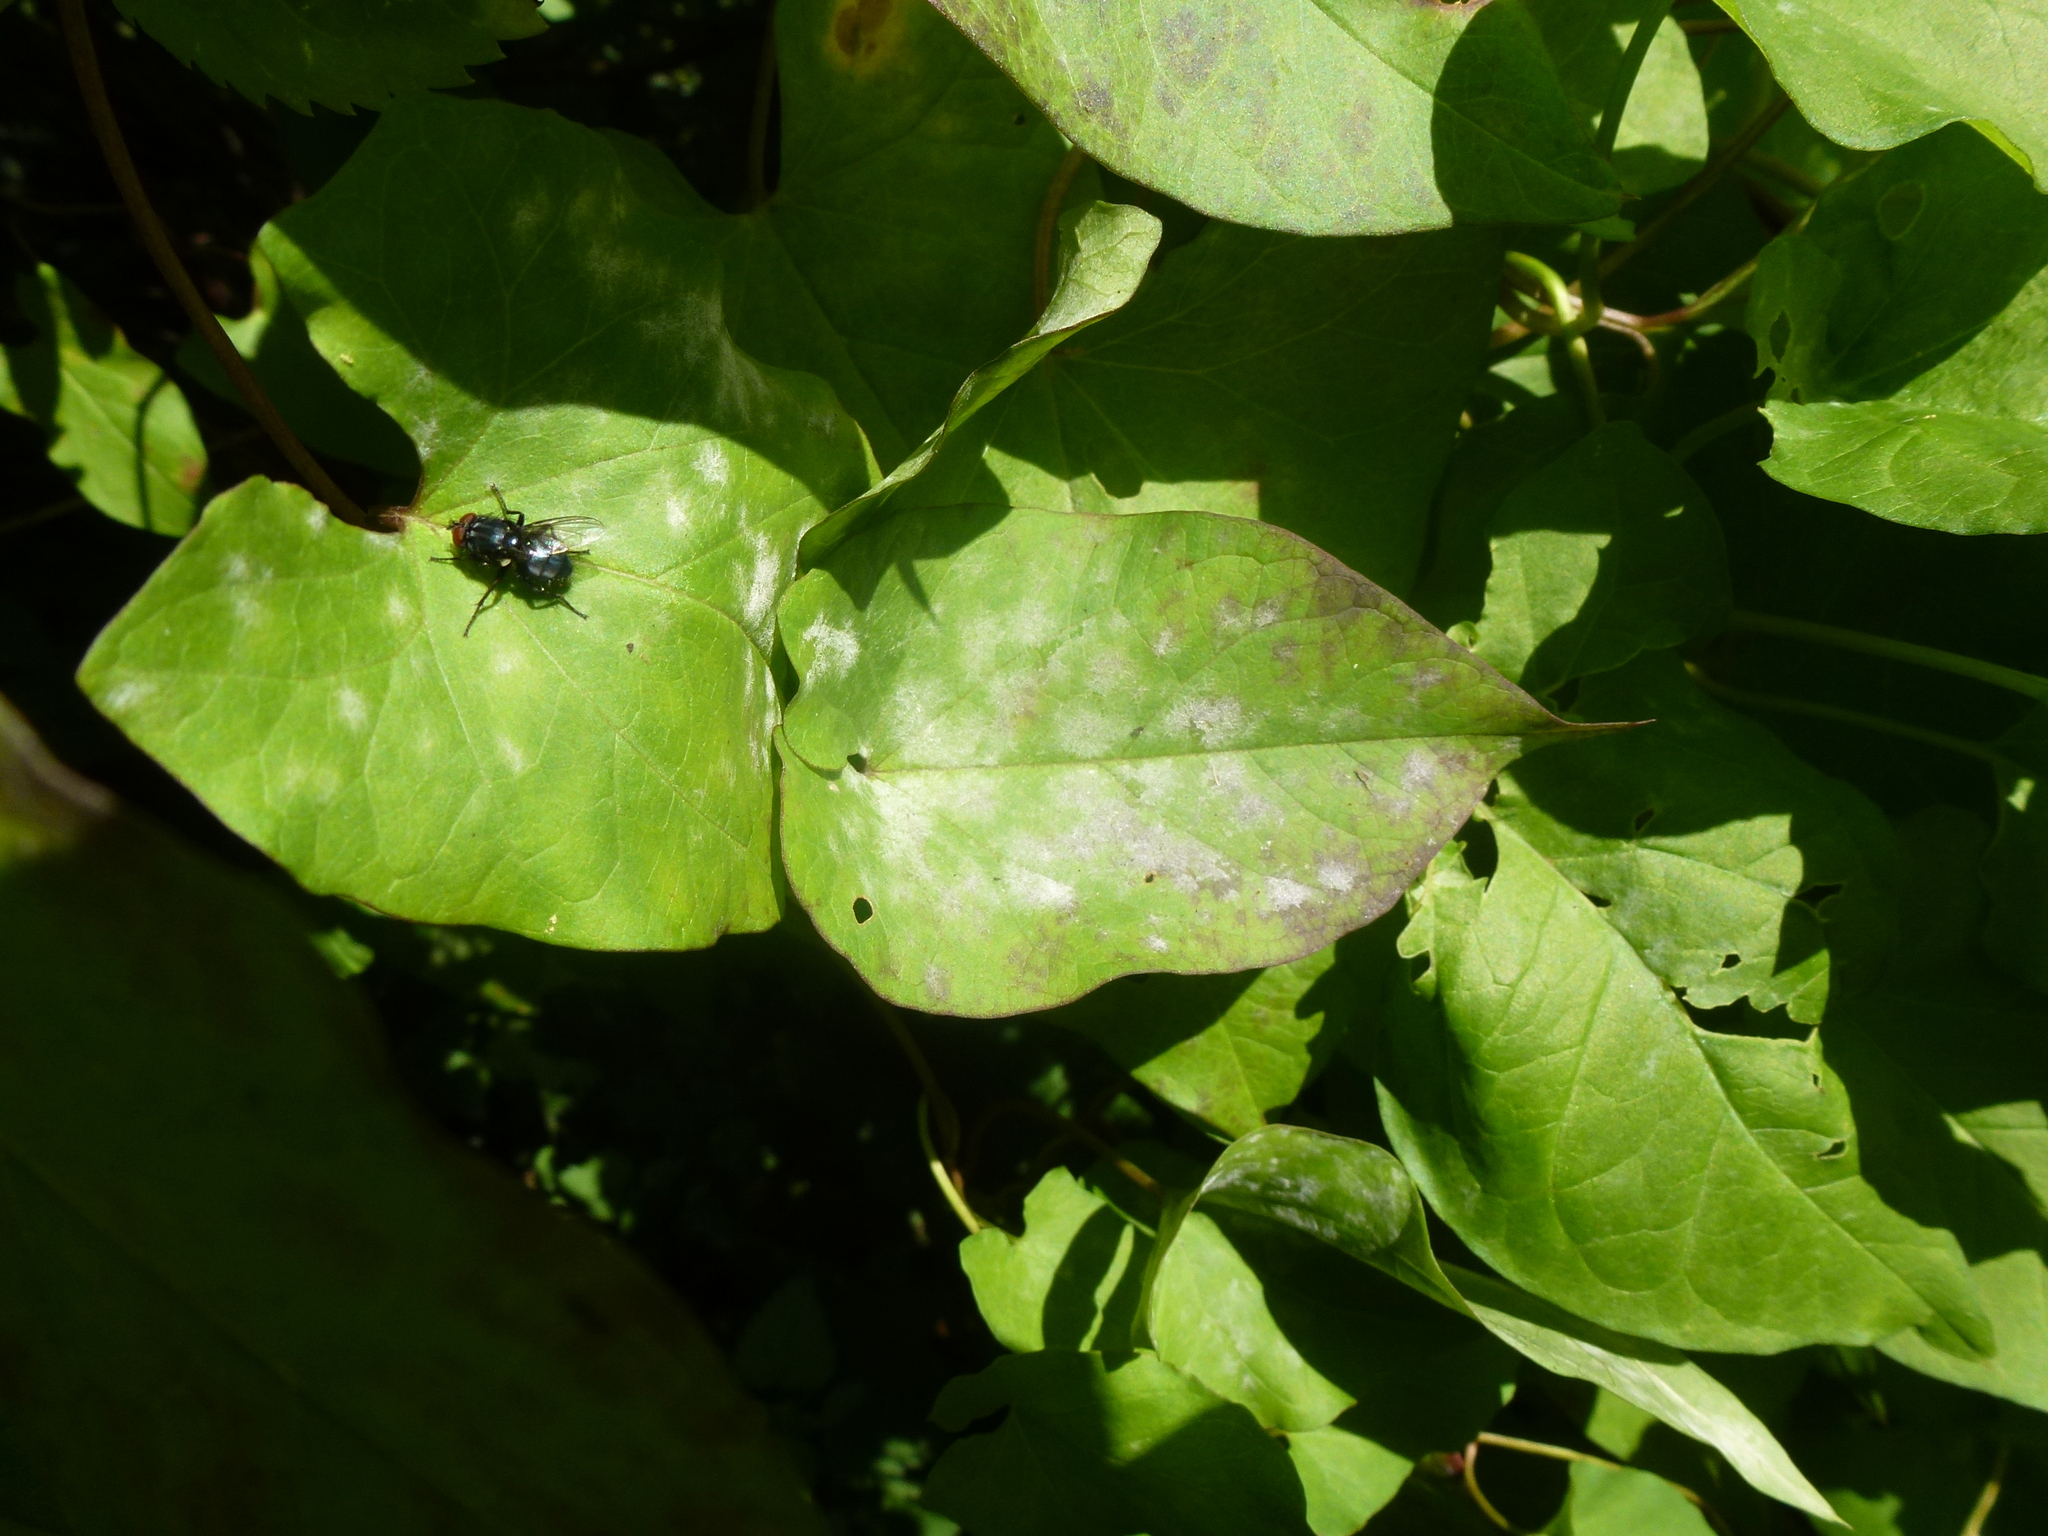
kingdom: Fungi
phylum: Ascomycota
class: Leotiomycetes
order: Helotiales
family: Erysiphaceae
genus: Erysiphe
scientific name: Erysiphe convolvuli
